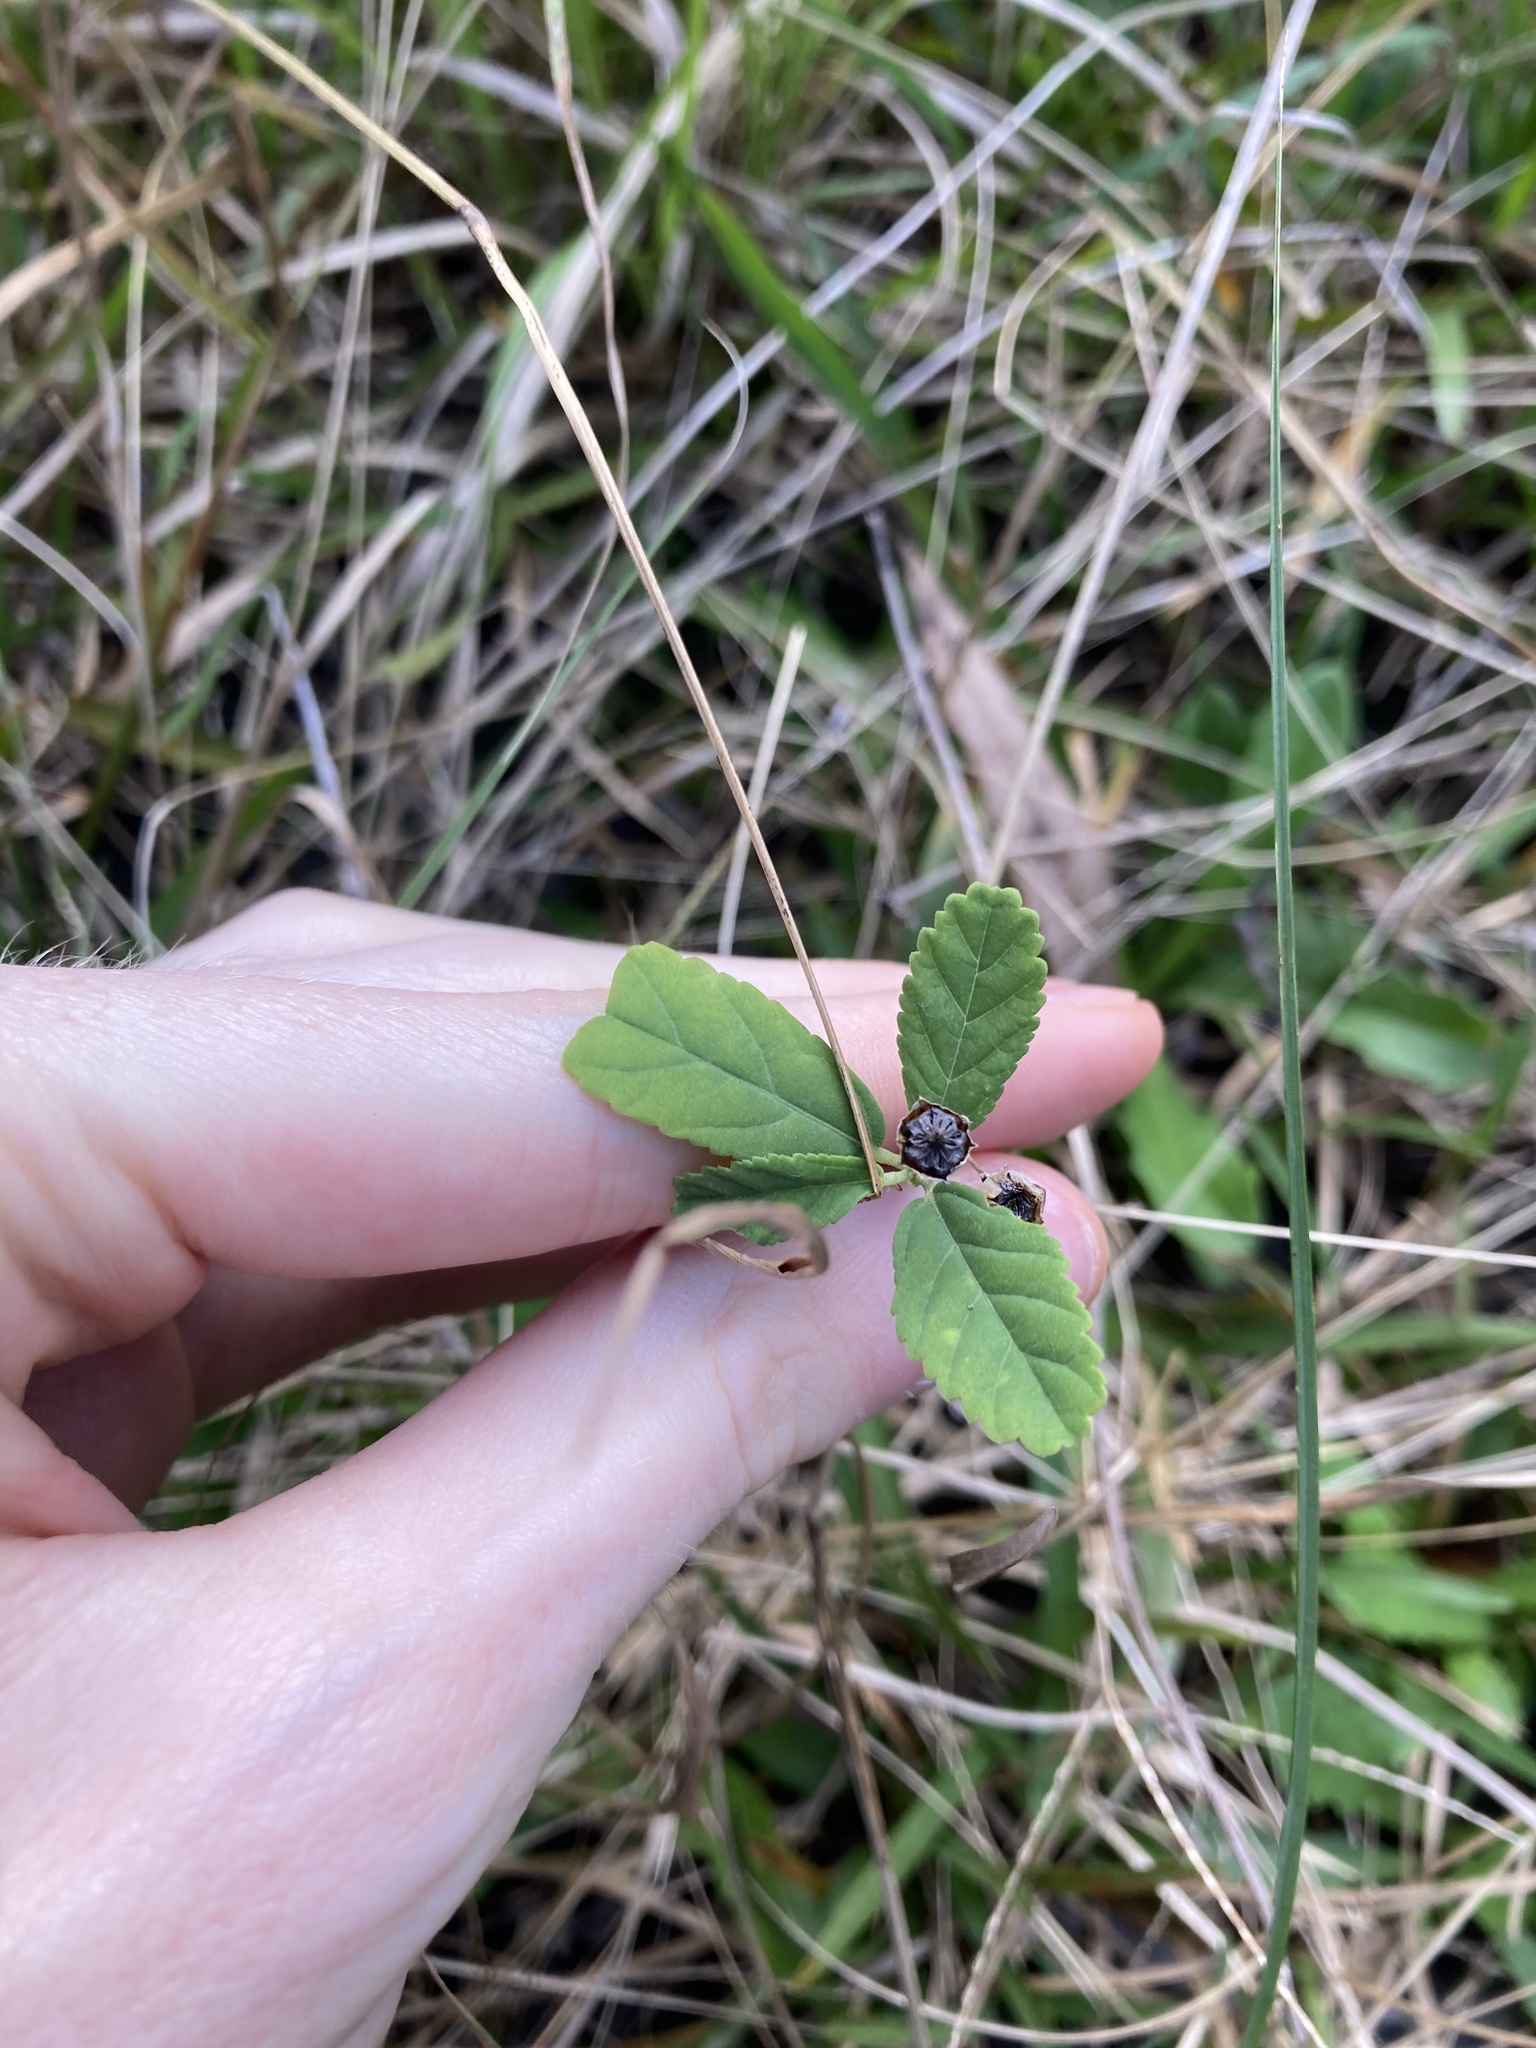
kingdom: Plantae
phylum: Tracheophyta
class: Magnoliopsida
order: Malvales
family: Malvaceae
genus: Sida
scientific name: Sida rhombifolia
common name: Queensland-hemp
